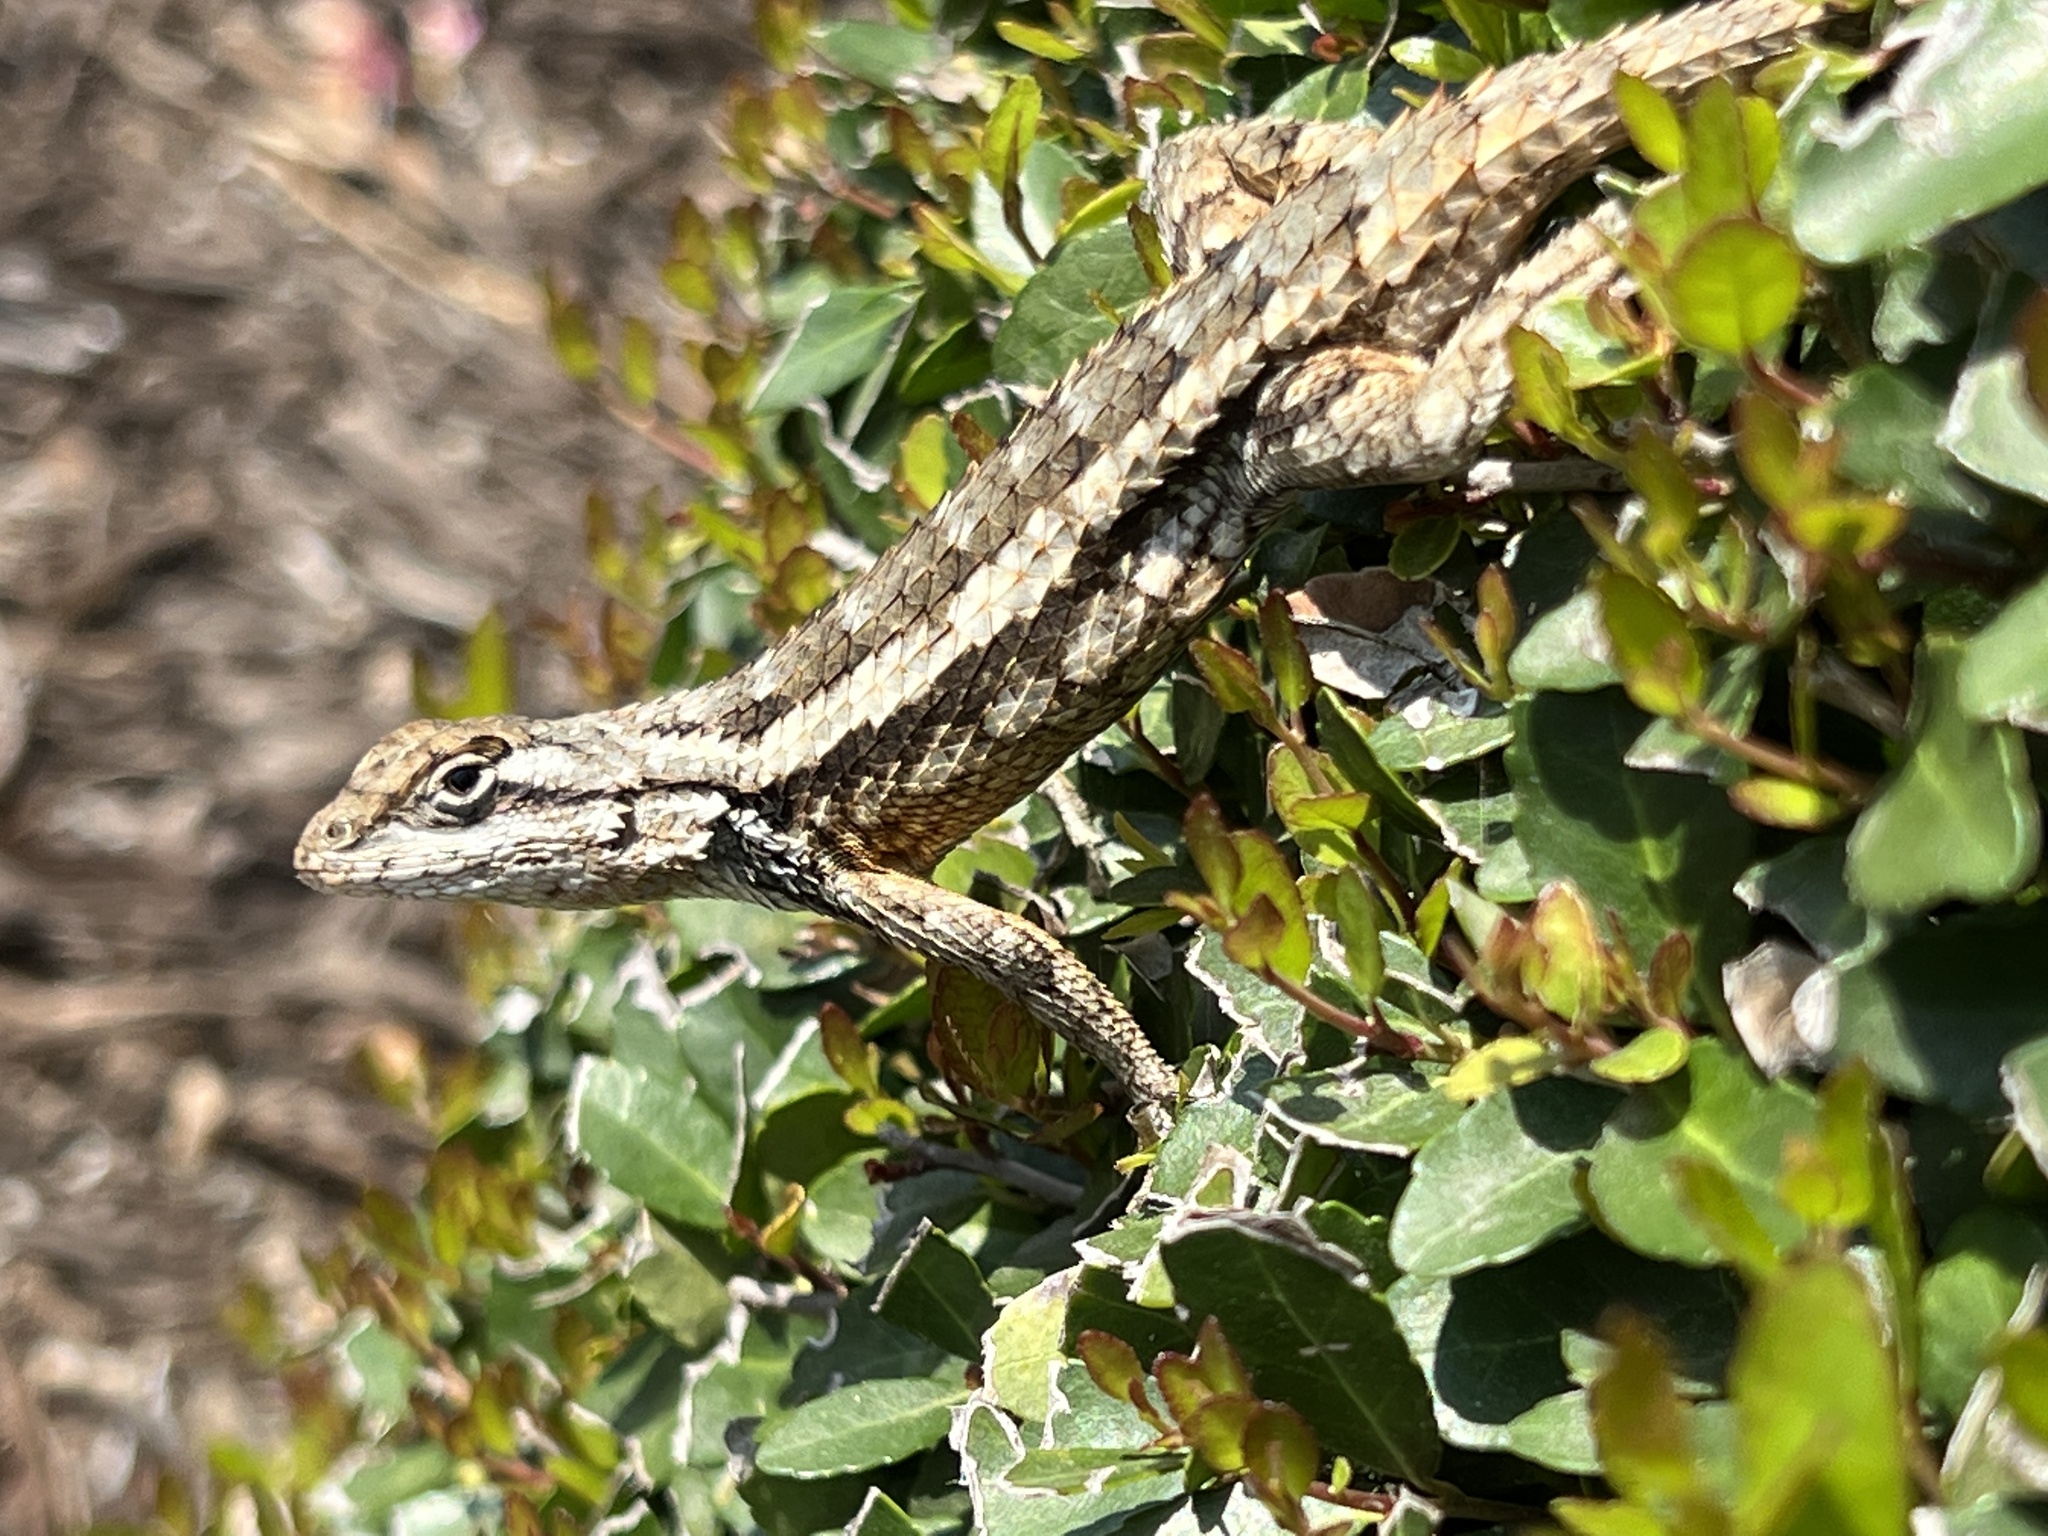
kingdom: Animalia
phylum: Chordata
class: Squamata
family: Phrynosomatidae
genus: Sceloporus
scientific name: Sceloporus olivaceus
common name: Texas spiny lizard
